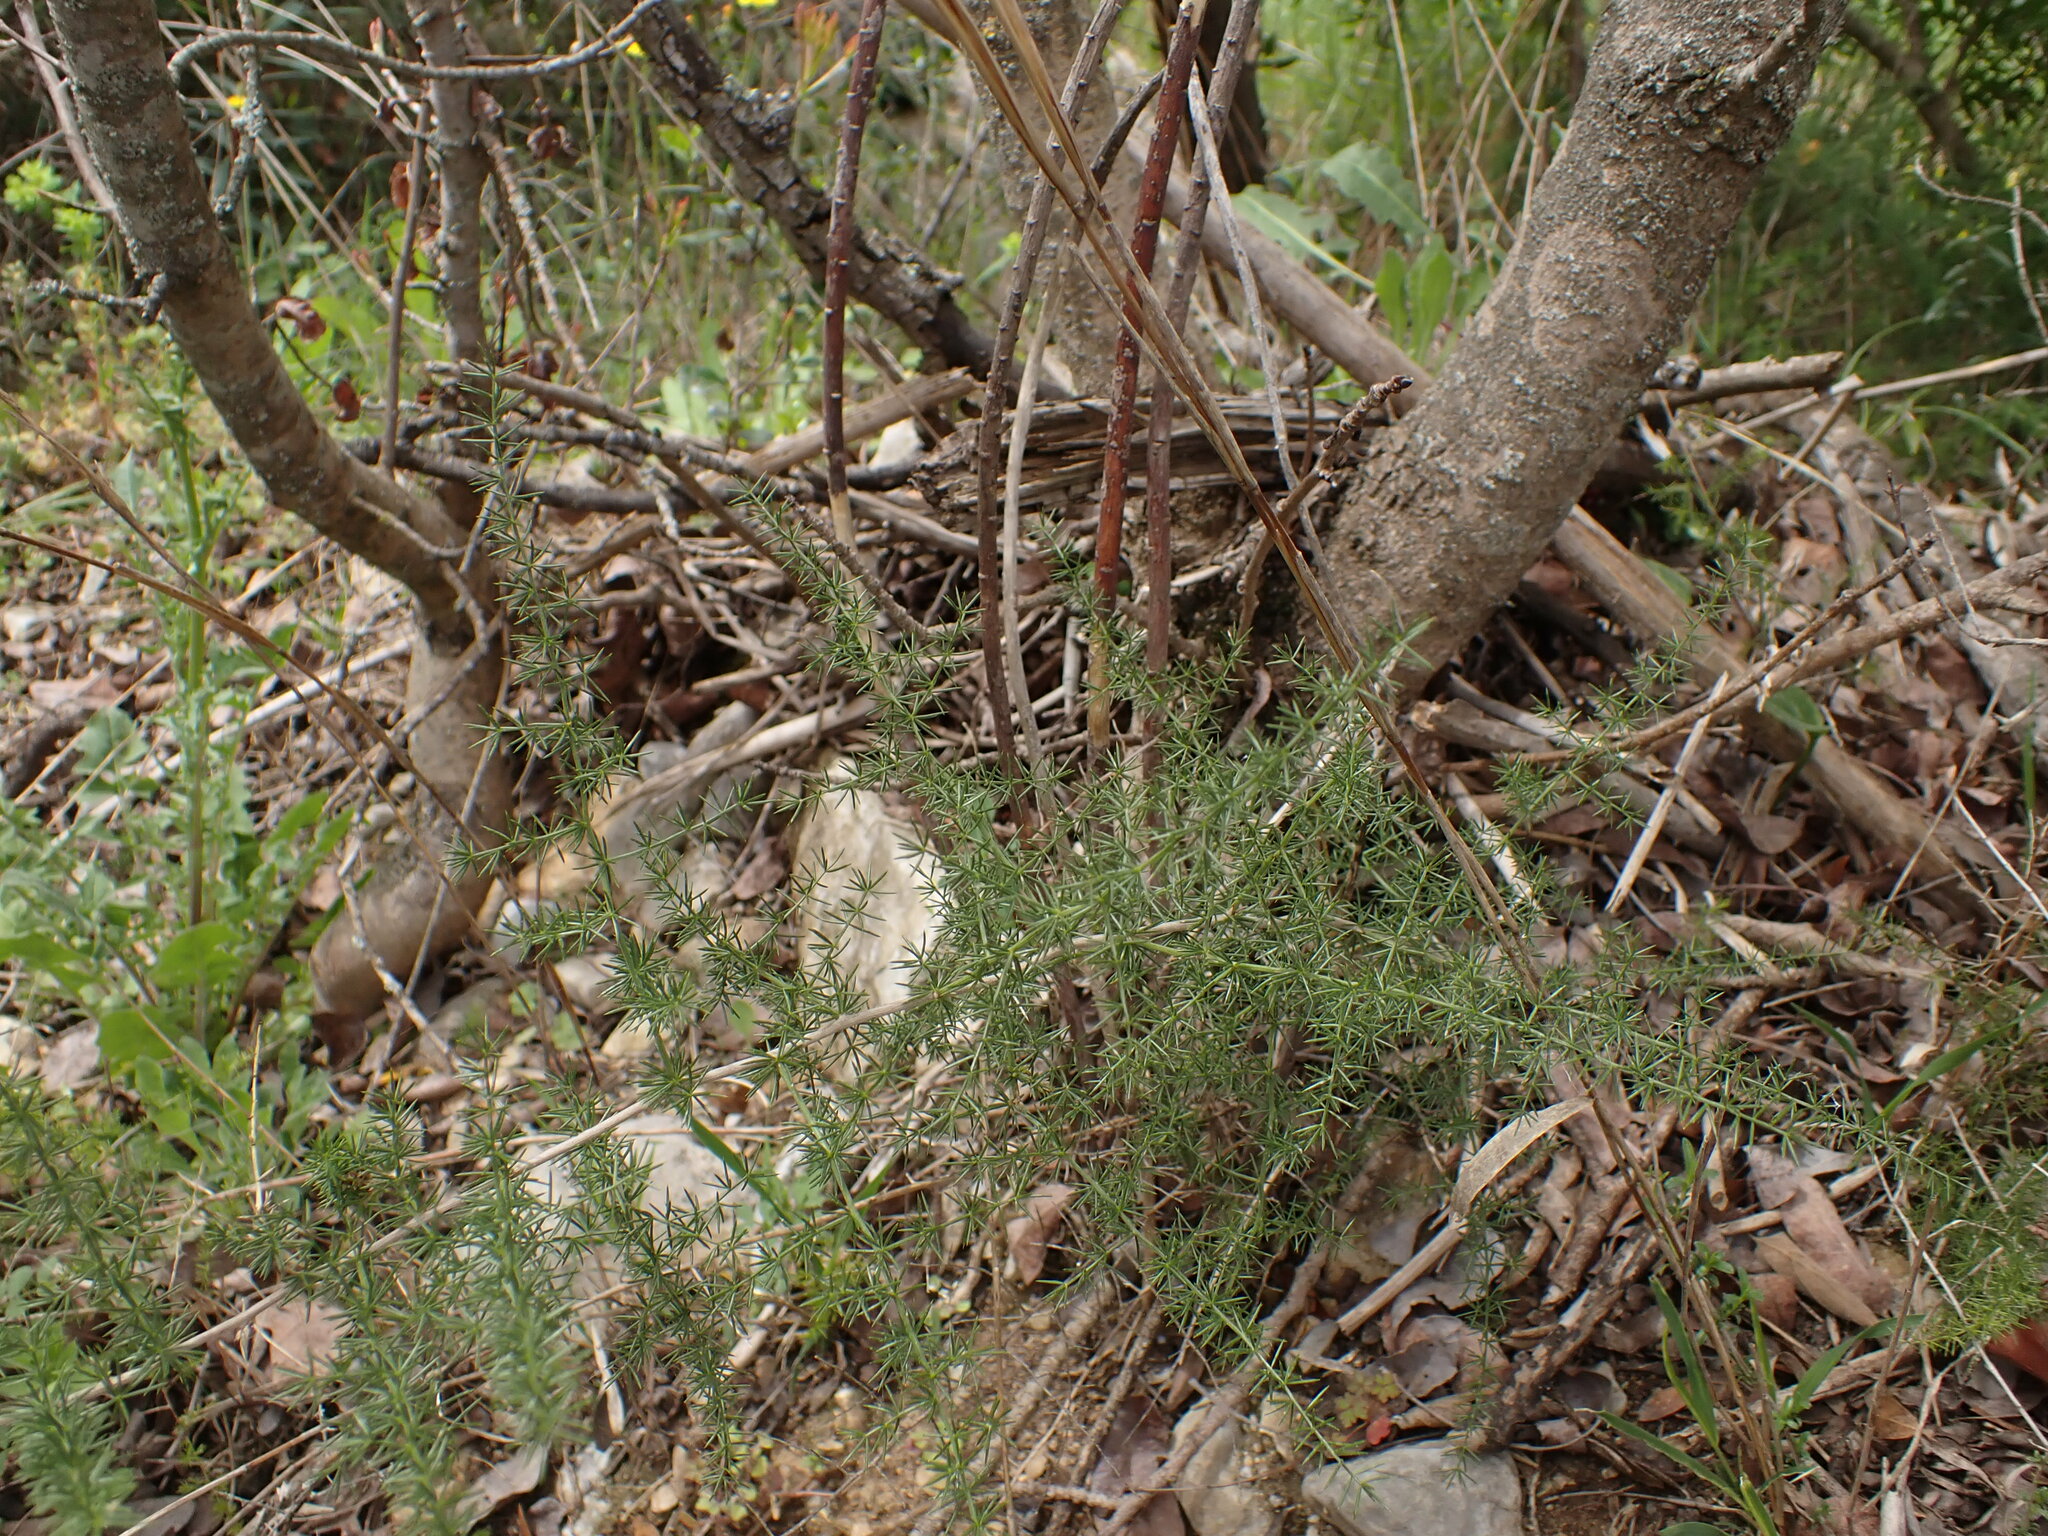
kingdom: Plantae
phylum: Tracheophyta
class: Liliopsida
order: Asparagales
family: Asparagaceae
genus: Asparagus
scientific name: Asparagus acutifolius
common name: Wild asparagus
